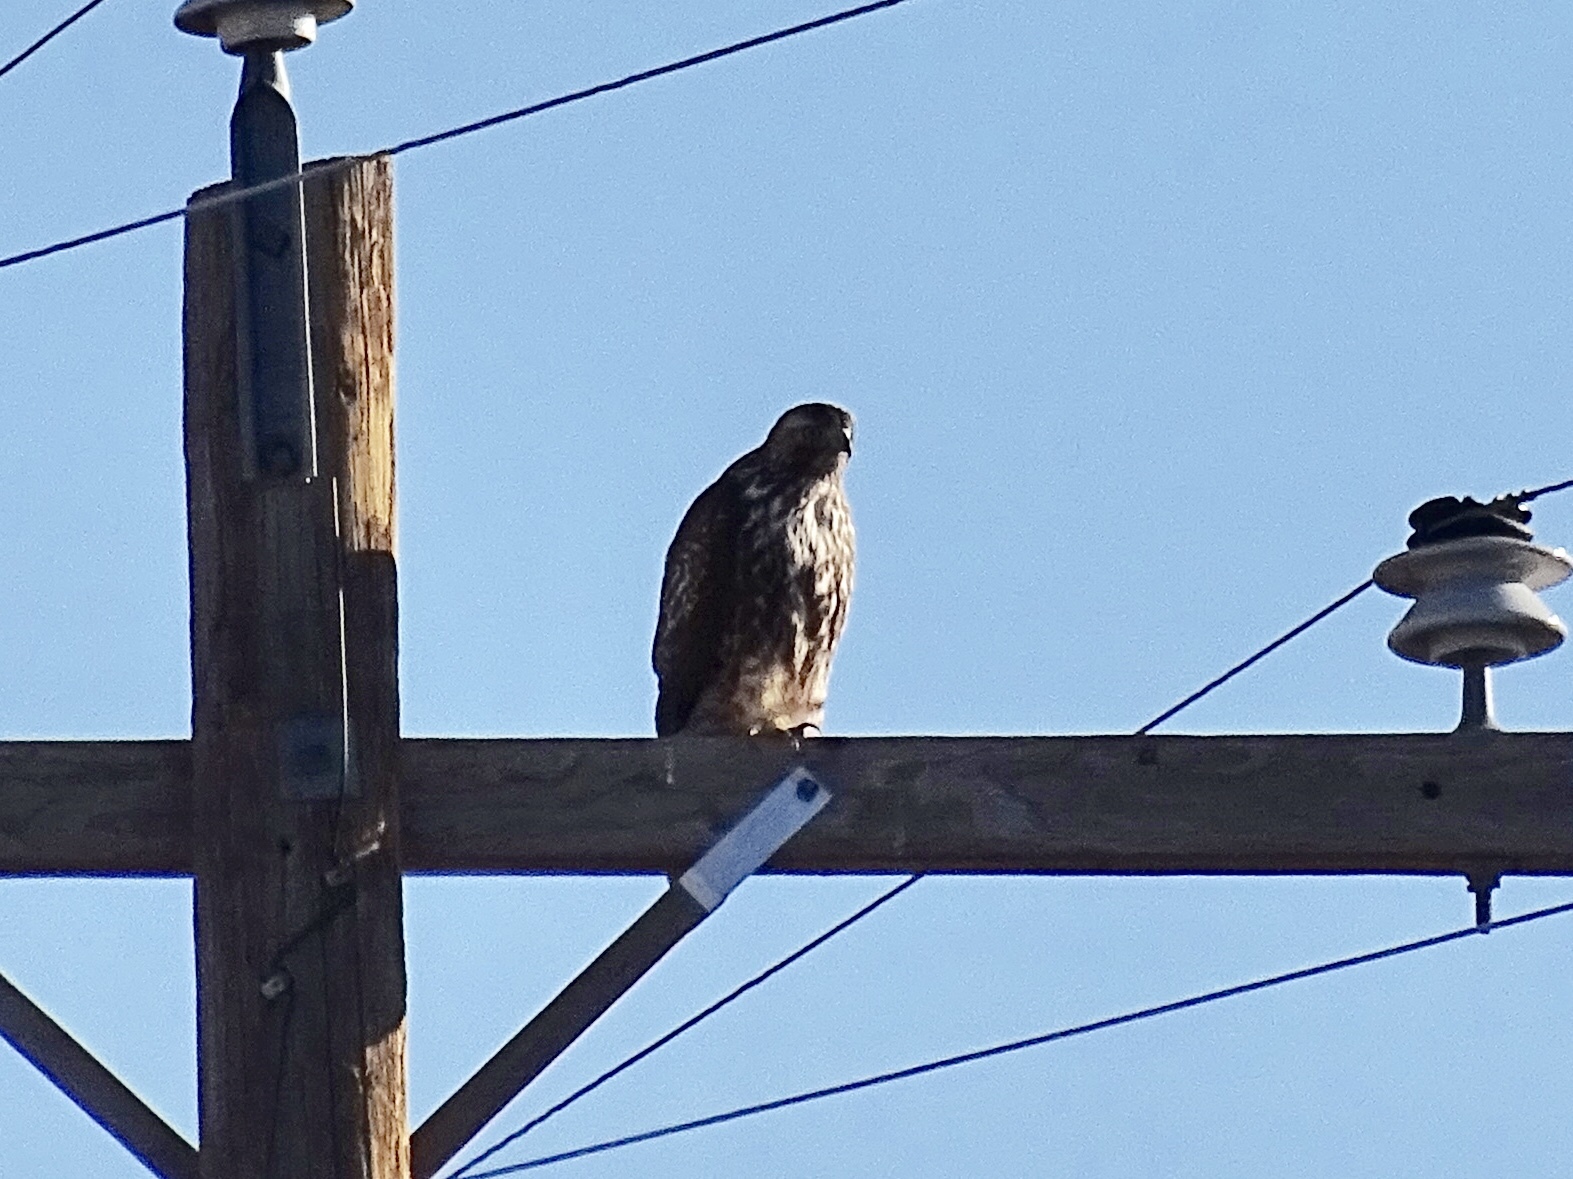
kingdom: Animalia
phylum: Chordata
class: Aves
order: Accipitriformes
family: Accipitridae
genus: Buteo
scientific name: Buteo jamaicensis
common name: Red-tailed hawk
